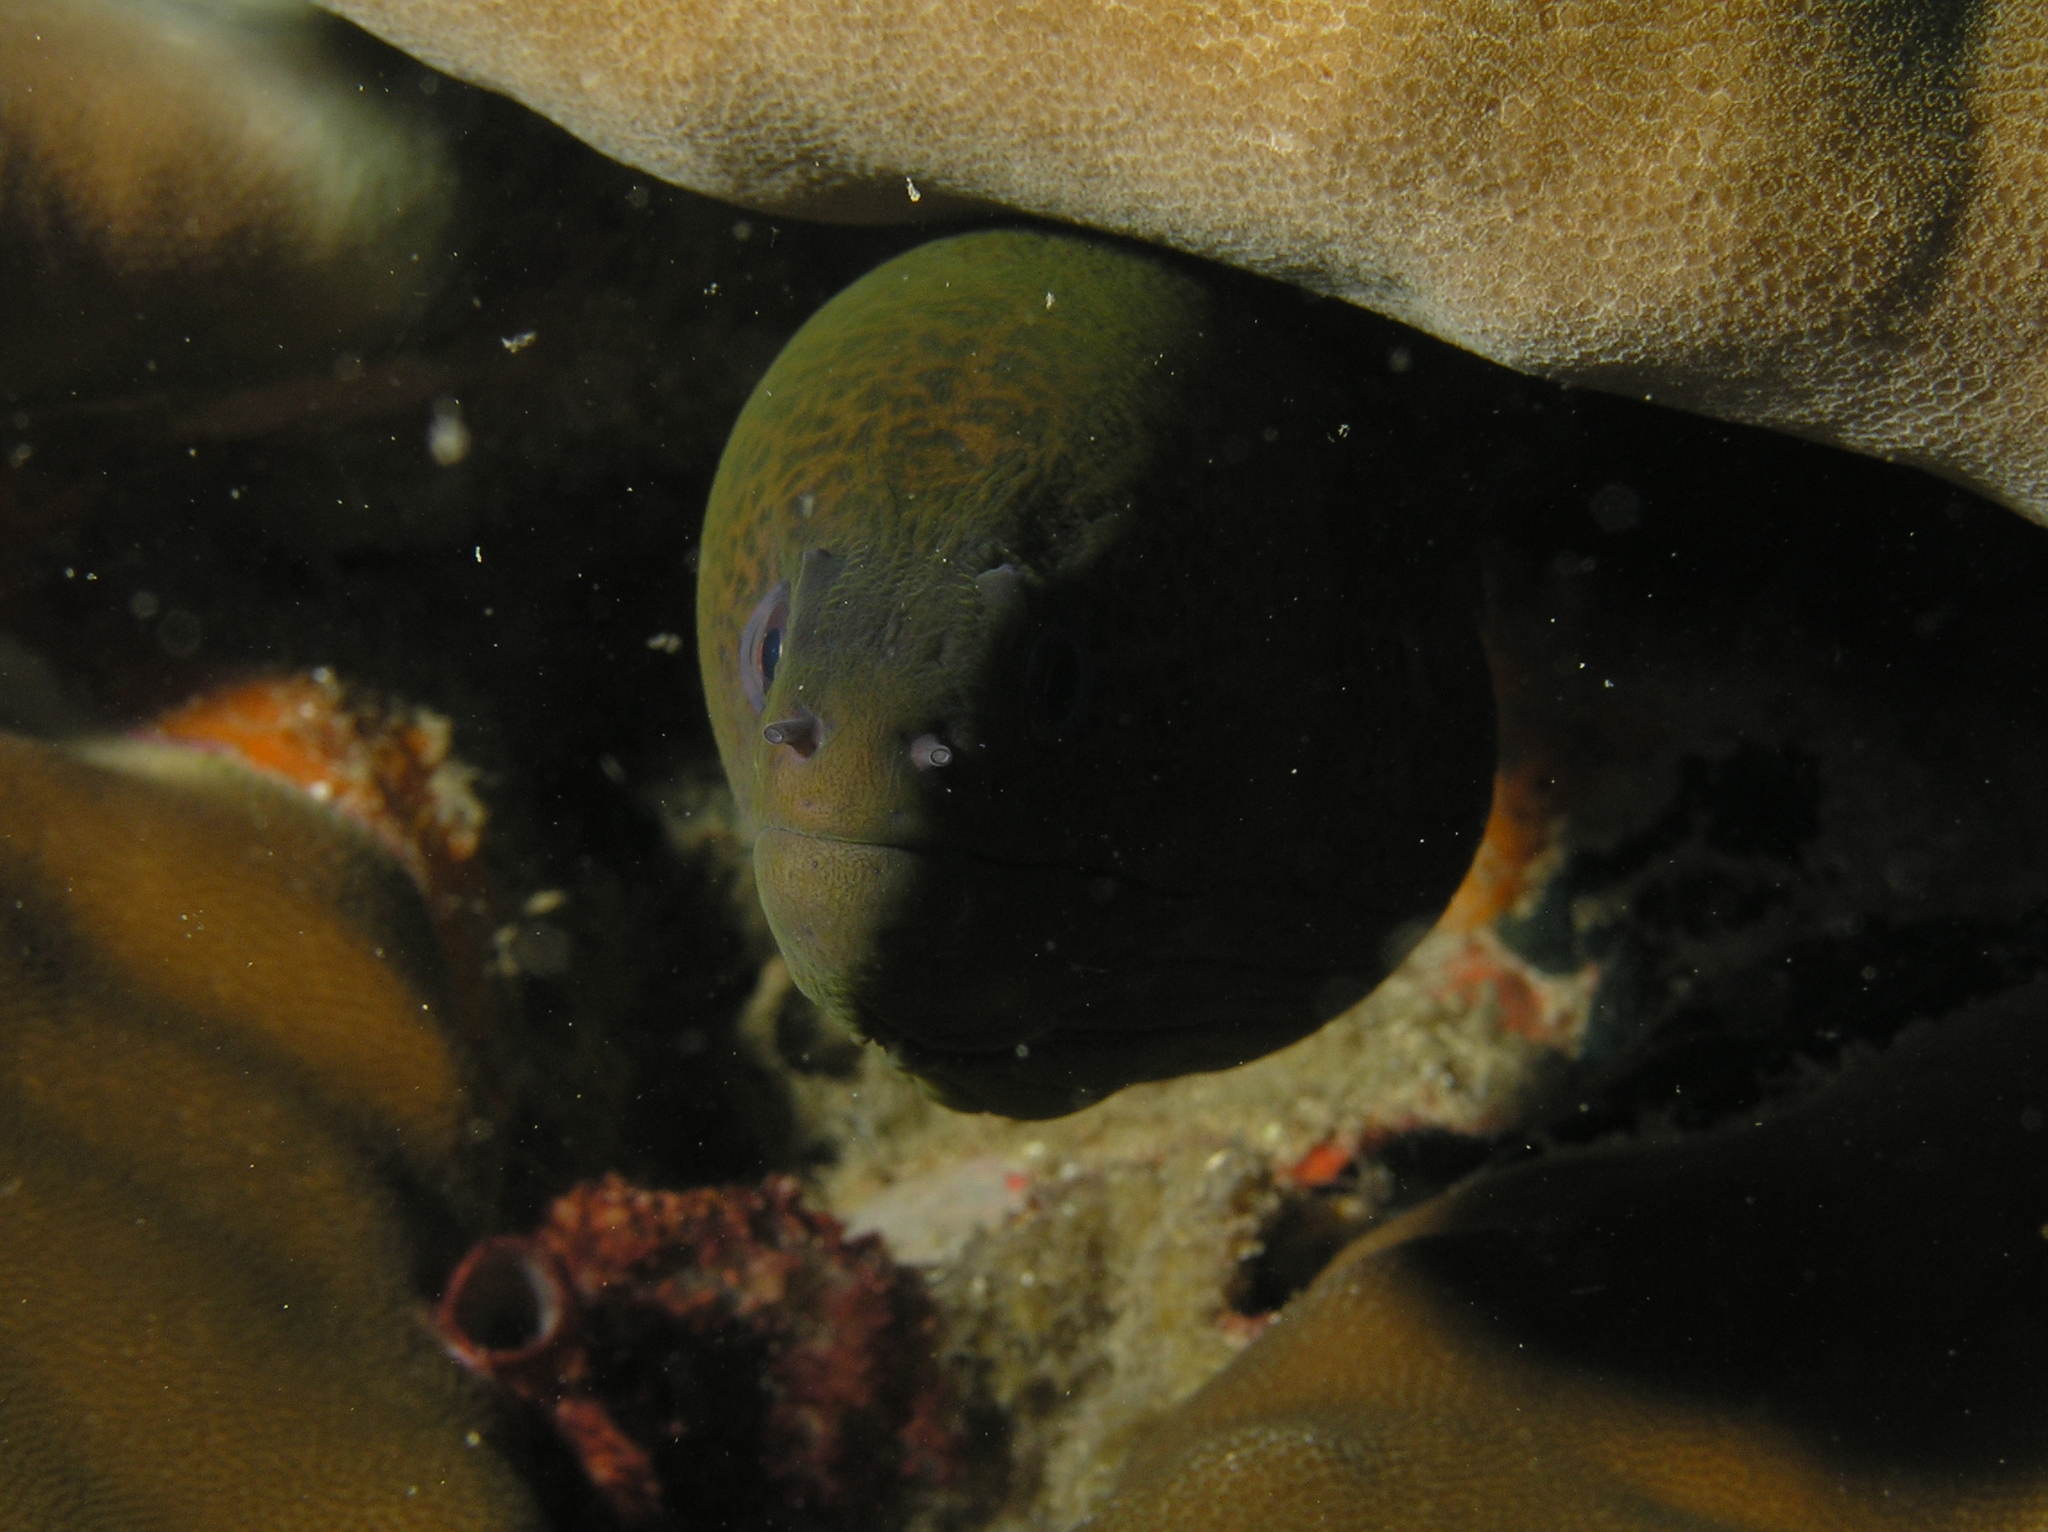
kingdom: Animalia
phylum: Chordata
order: Anguilliformes
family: Muraenidae
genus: Gymnothorax
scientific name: Gymnothorax javanicus
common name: Giant moray
